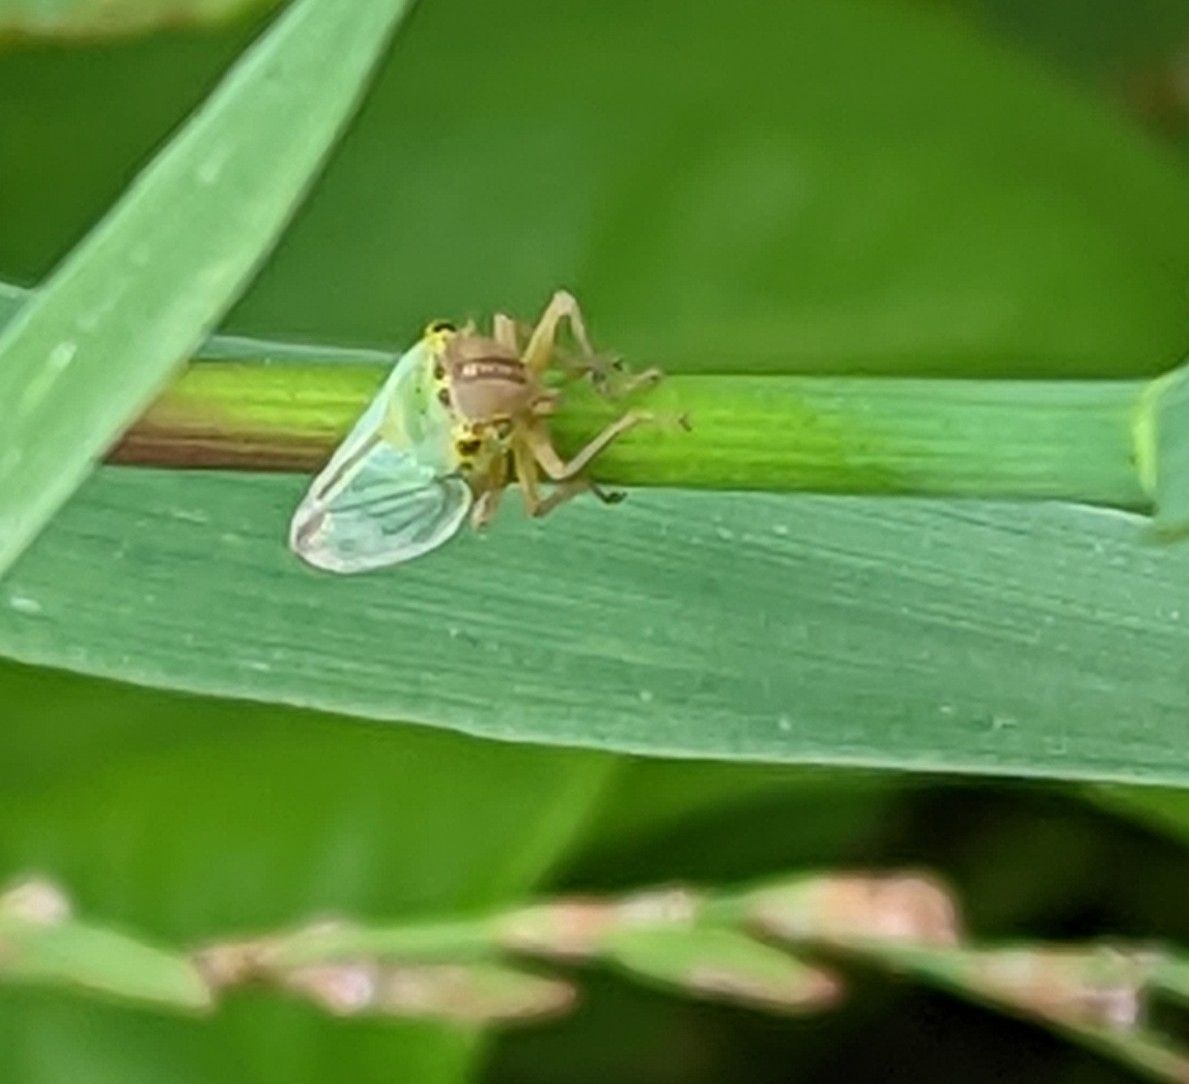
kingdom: Animalia
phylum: Arthropoda
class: Insecta
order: Hemiptera
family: Cicadellidae
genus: Cicadella
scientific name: Cicadella viridis
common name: Leafhopper
